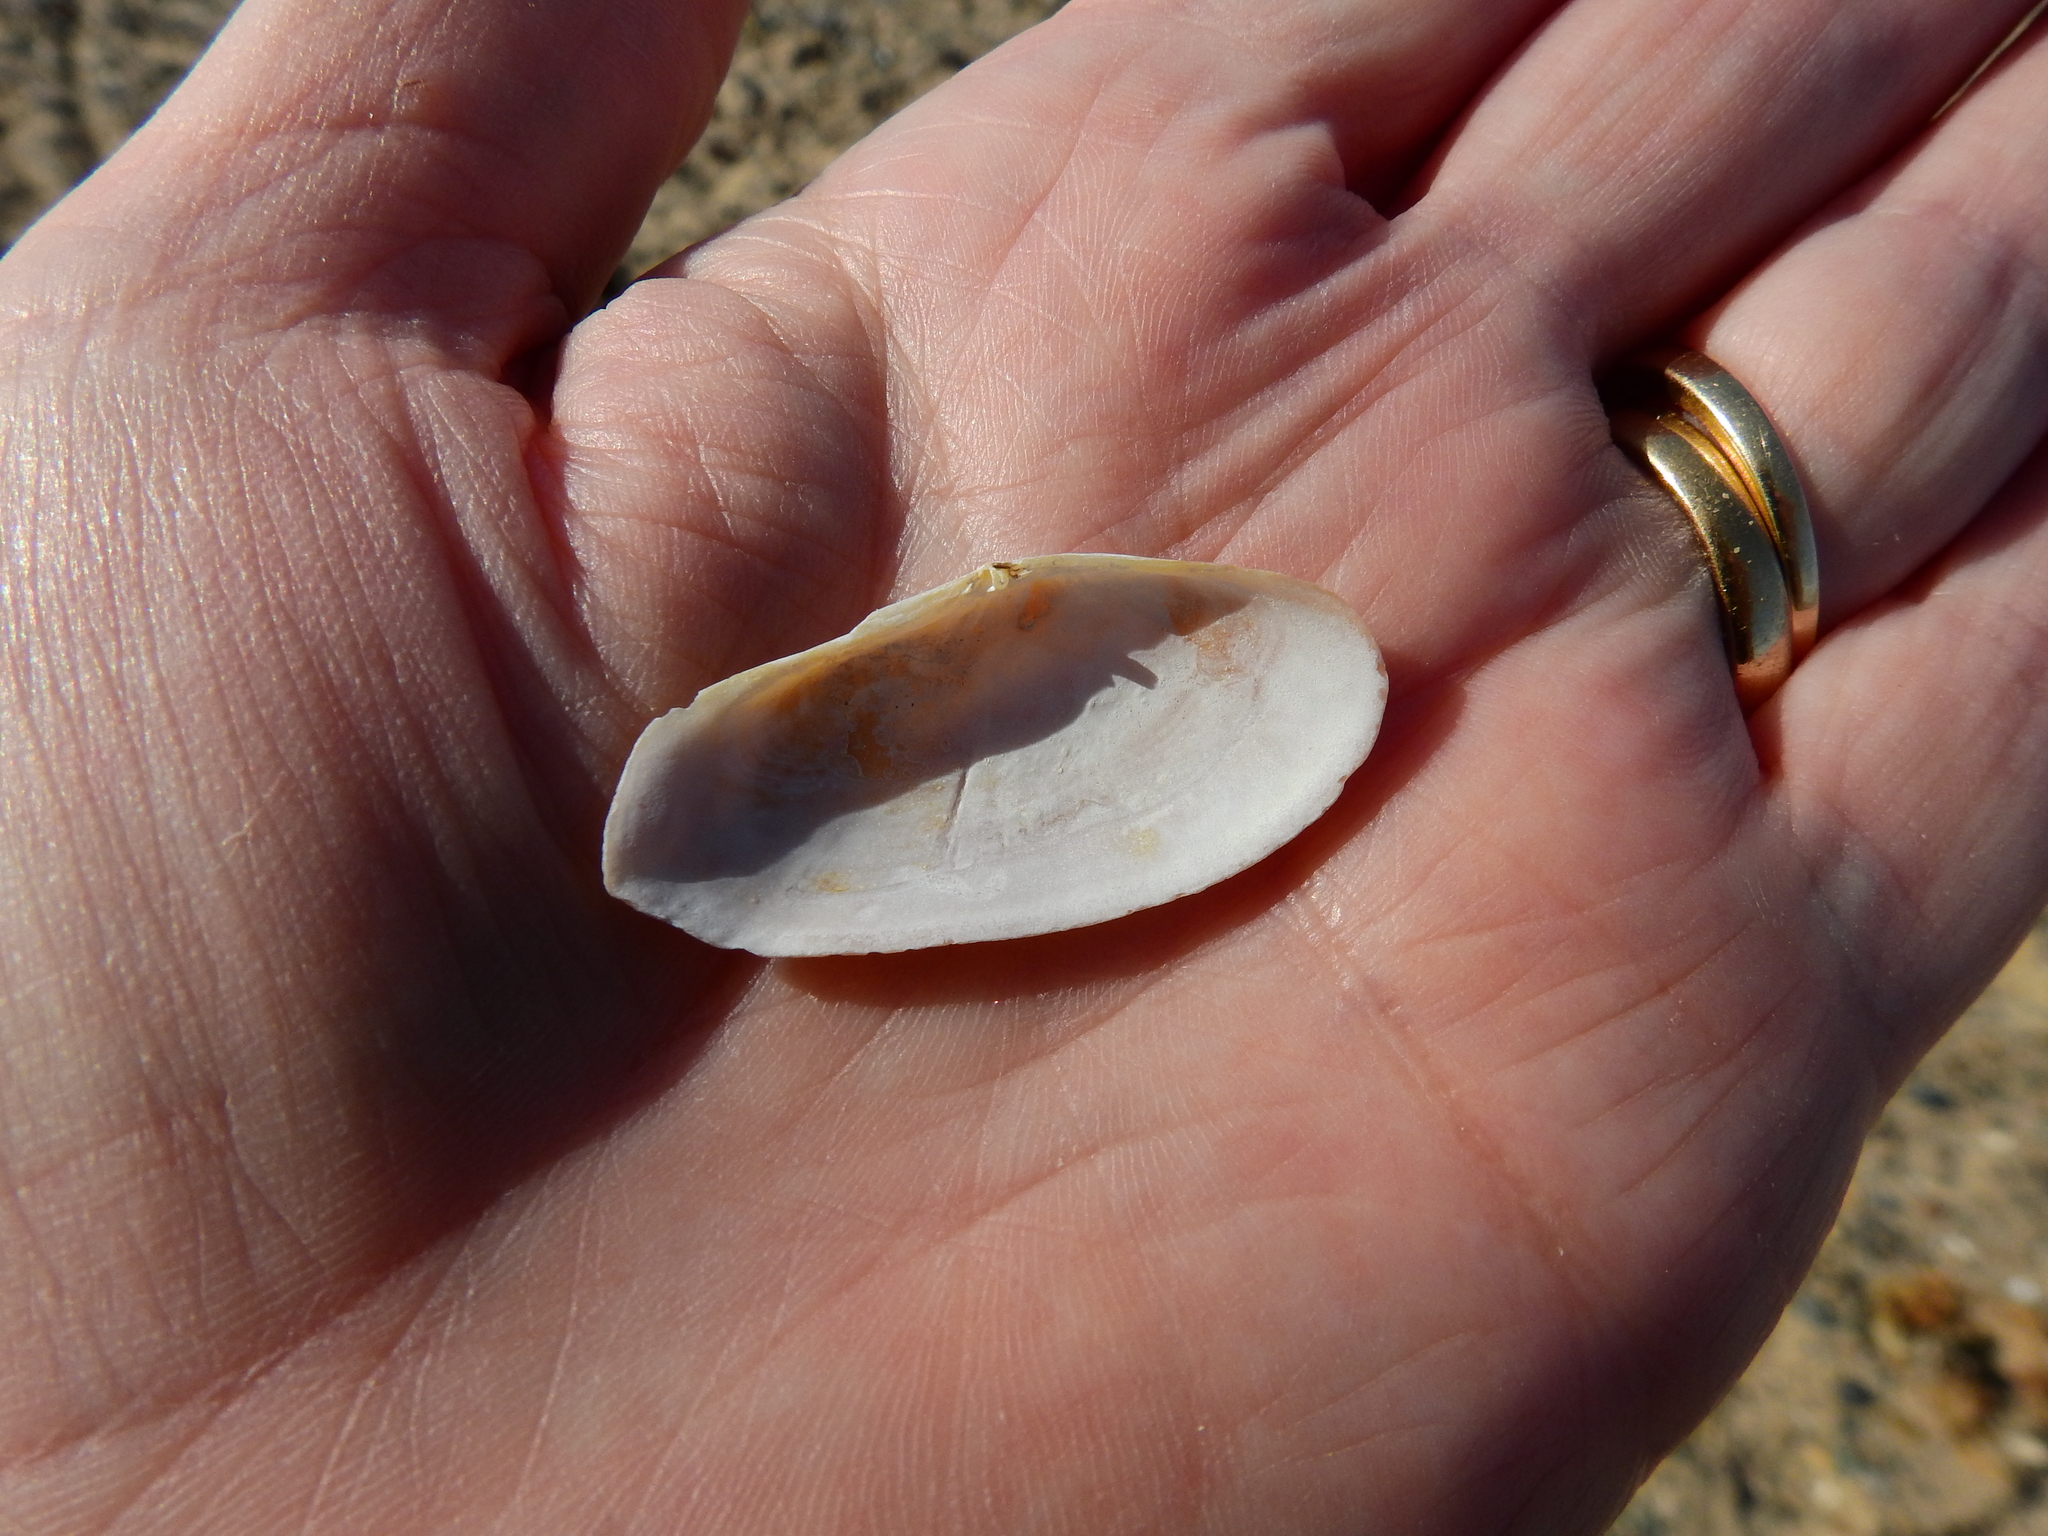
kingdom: Animalia
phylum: Mollusca
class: Bivalvia
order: Cardiida
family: Psammobiidae
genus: Gari
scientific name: Gari fervensis
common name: Faroe sunset shell
